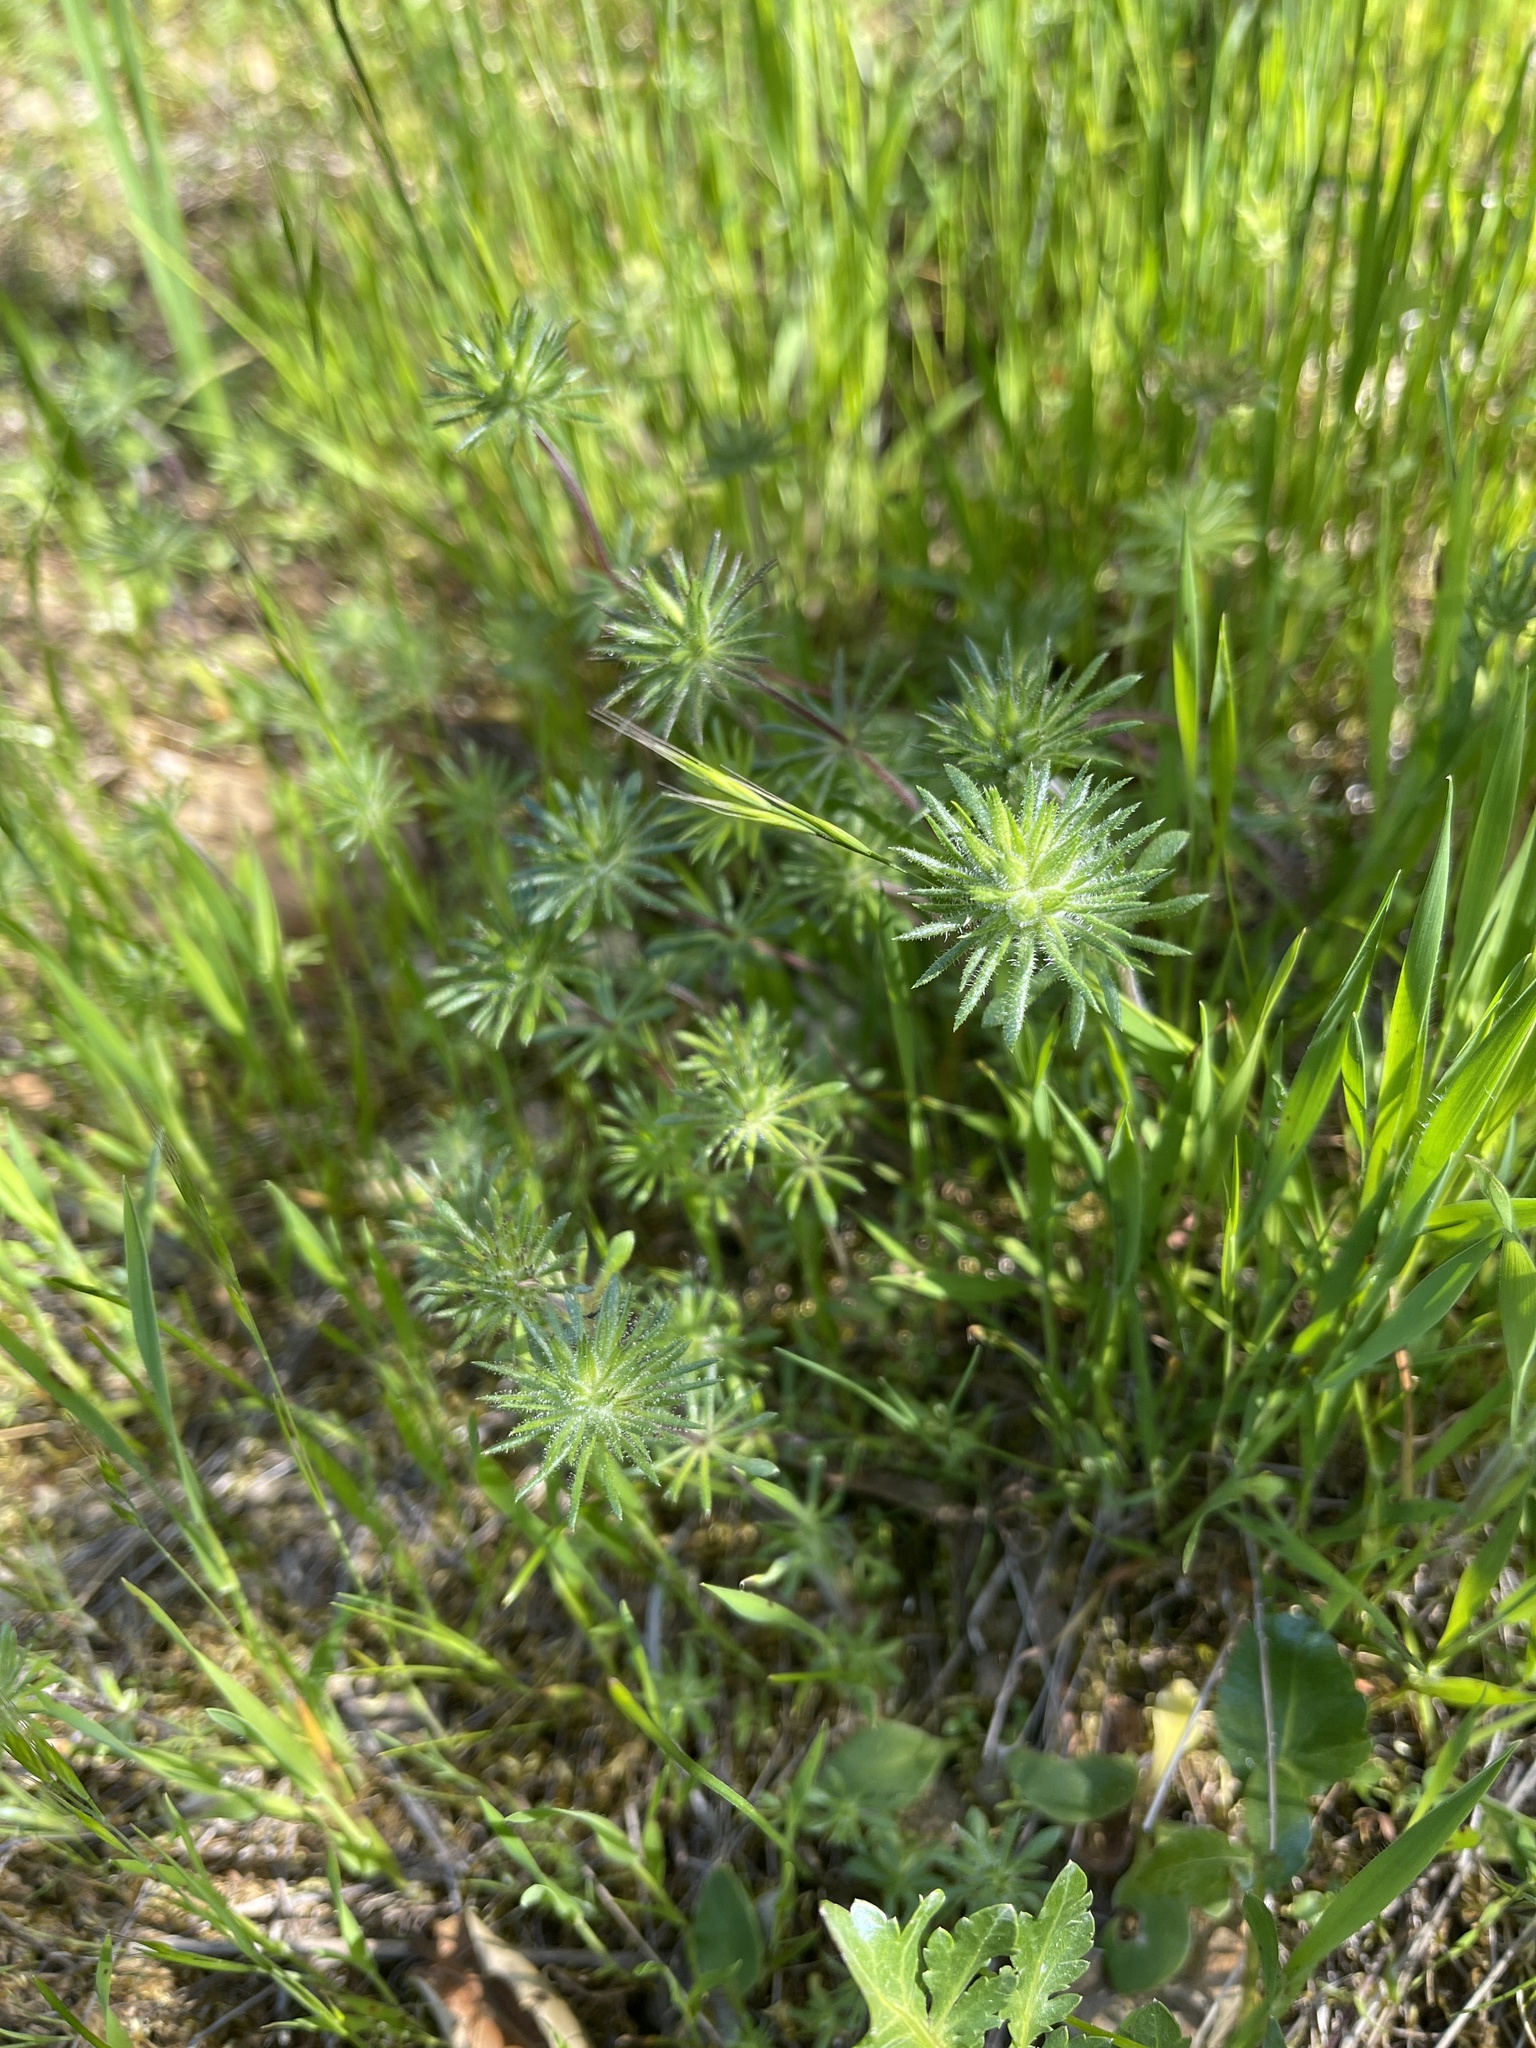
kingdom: Plantae
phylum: Tracheophyta
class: Magnoliopsida
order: Ericales
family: Polemoniaceae
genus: Leptosiphon
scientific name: Leptosiphon parviflorus
